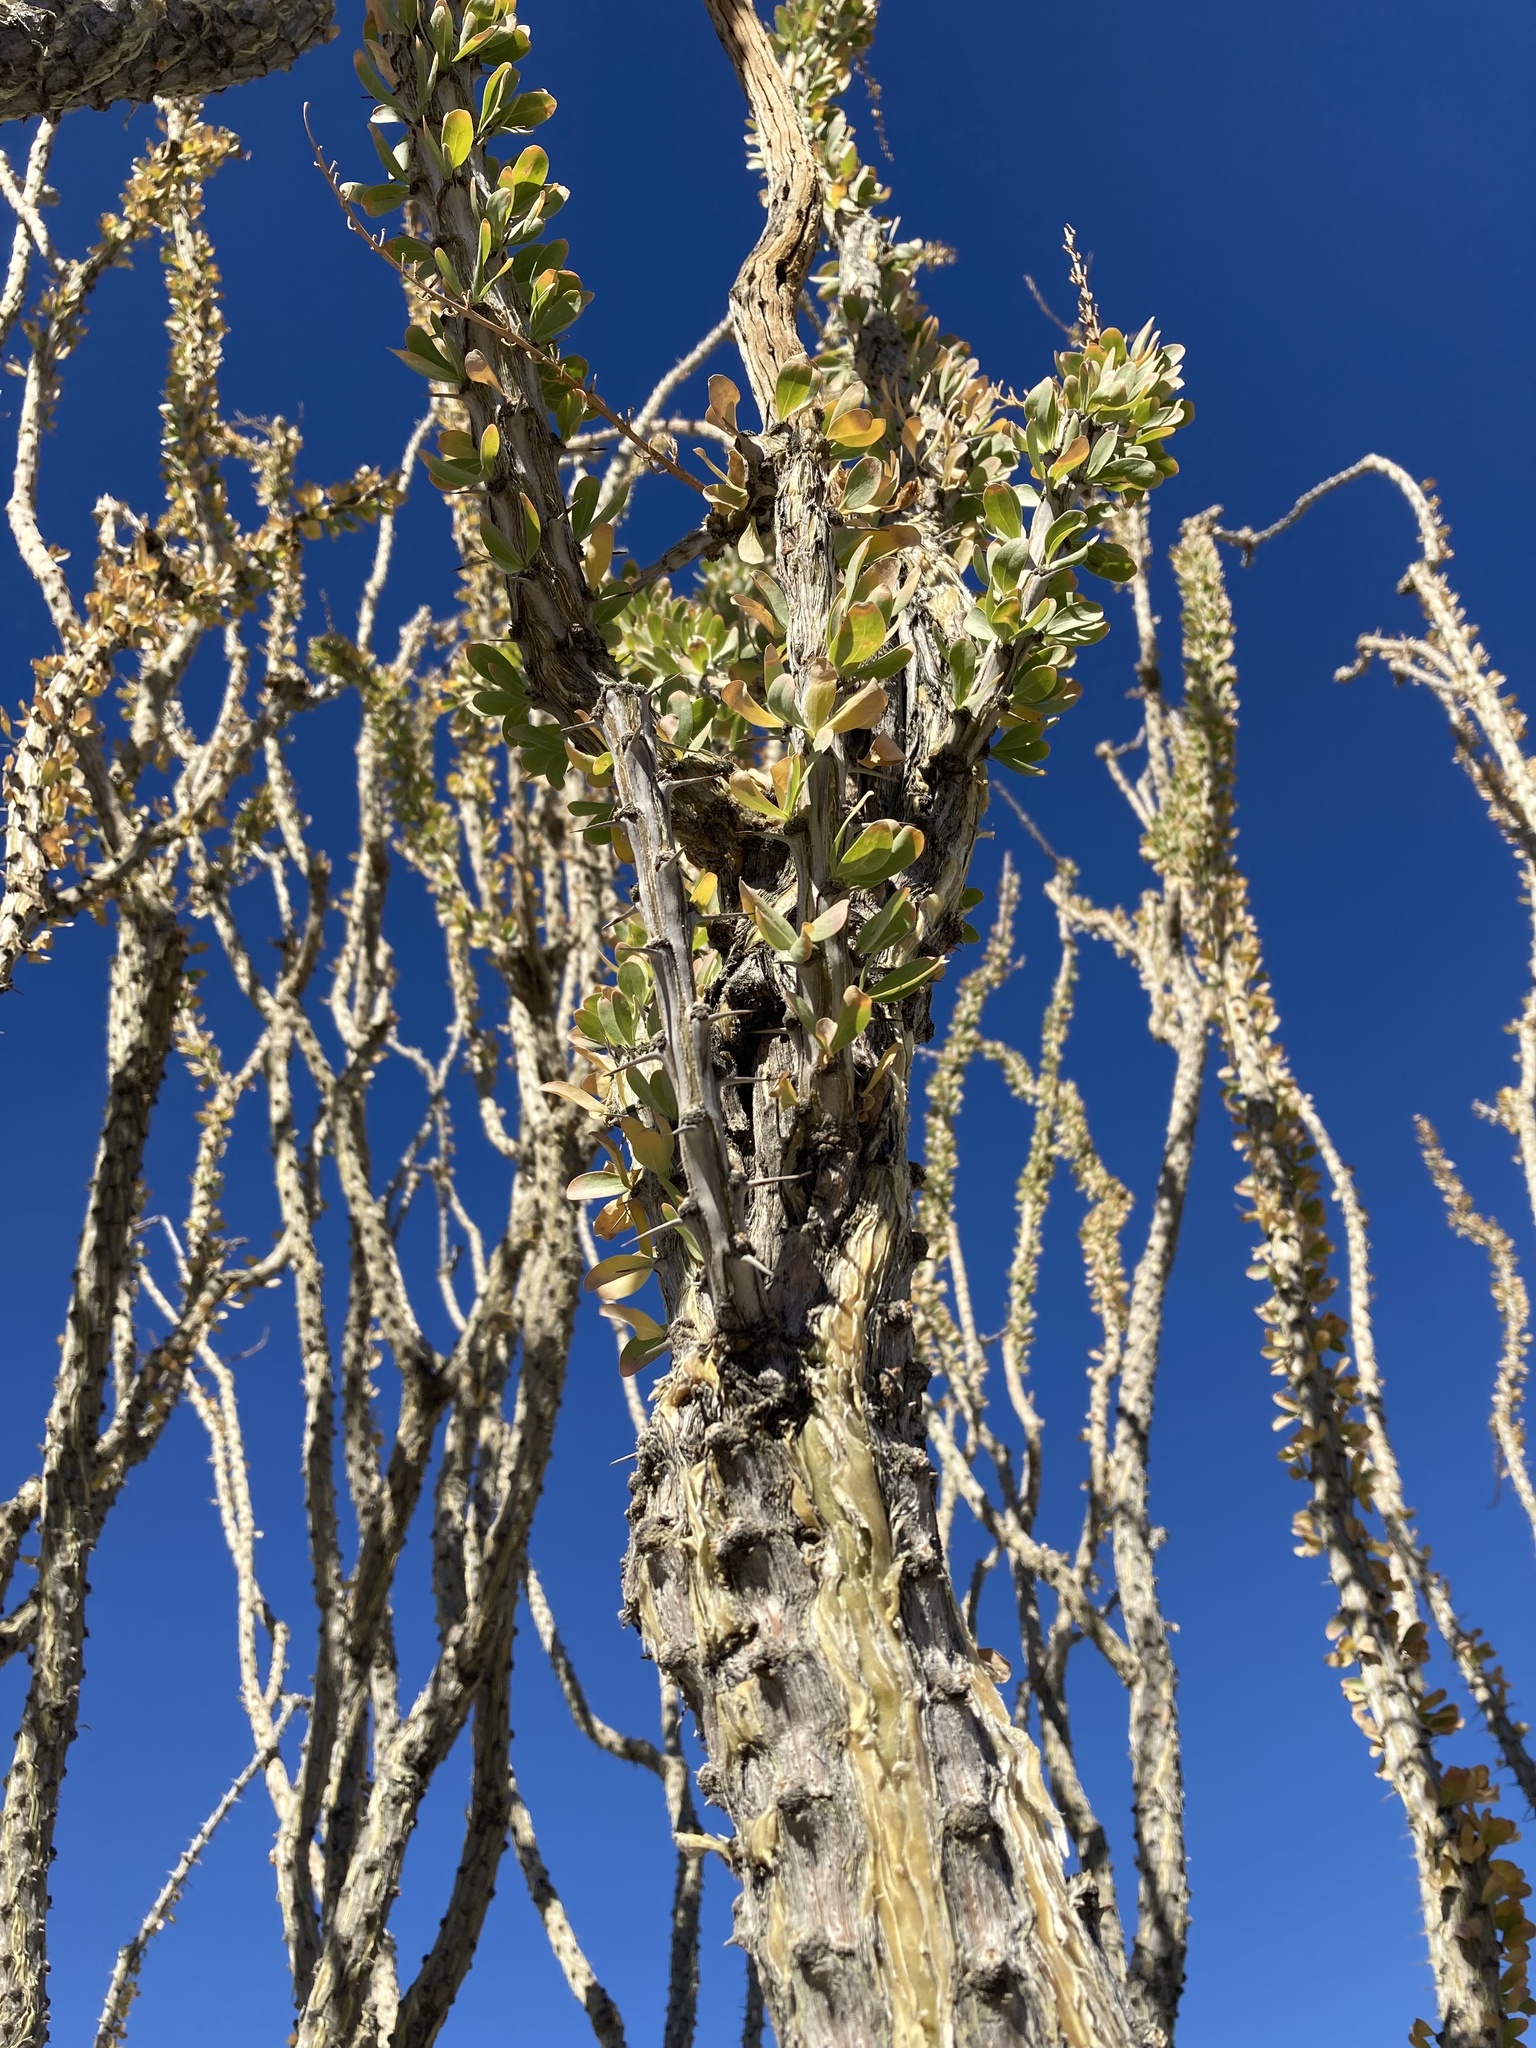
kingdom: Plantae
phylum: Tracheophyta
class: Magnoliopsida
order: Ericales
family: Fouquieriaceae
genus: Fouquieria
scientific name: Fouquieria splendens
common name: Vine-cactus
